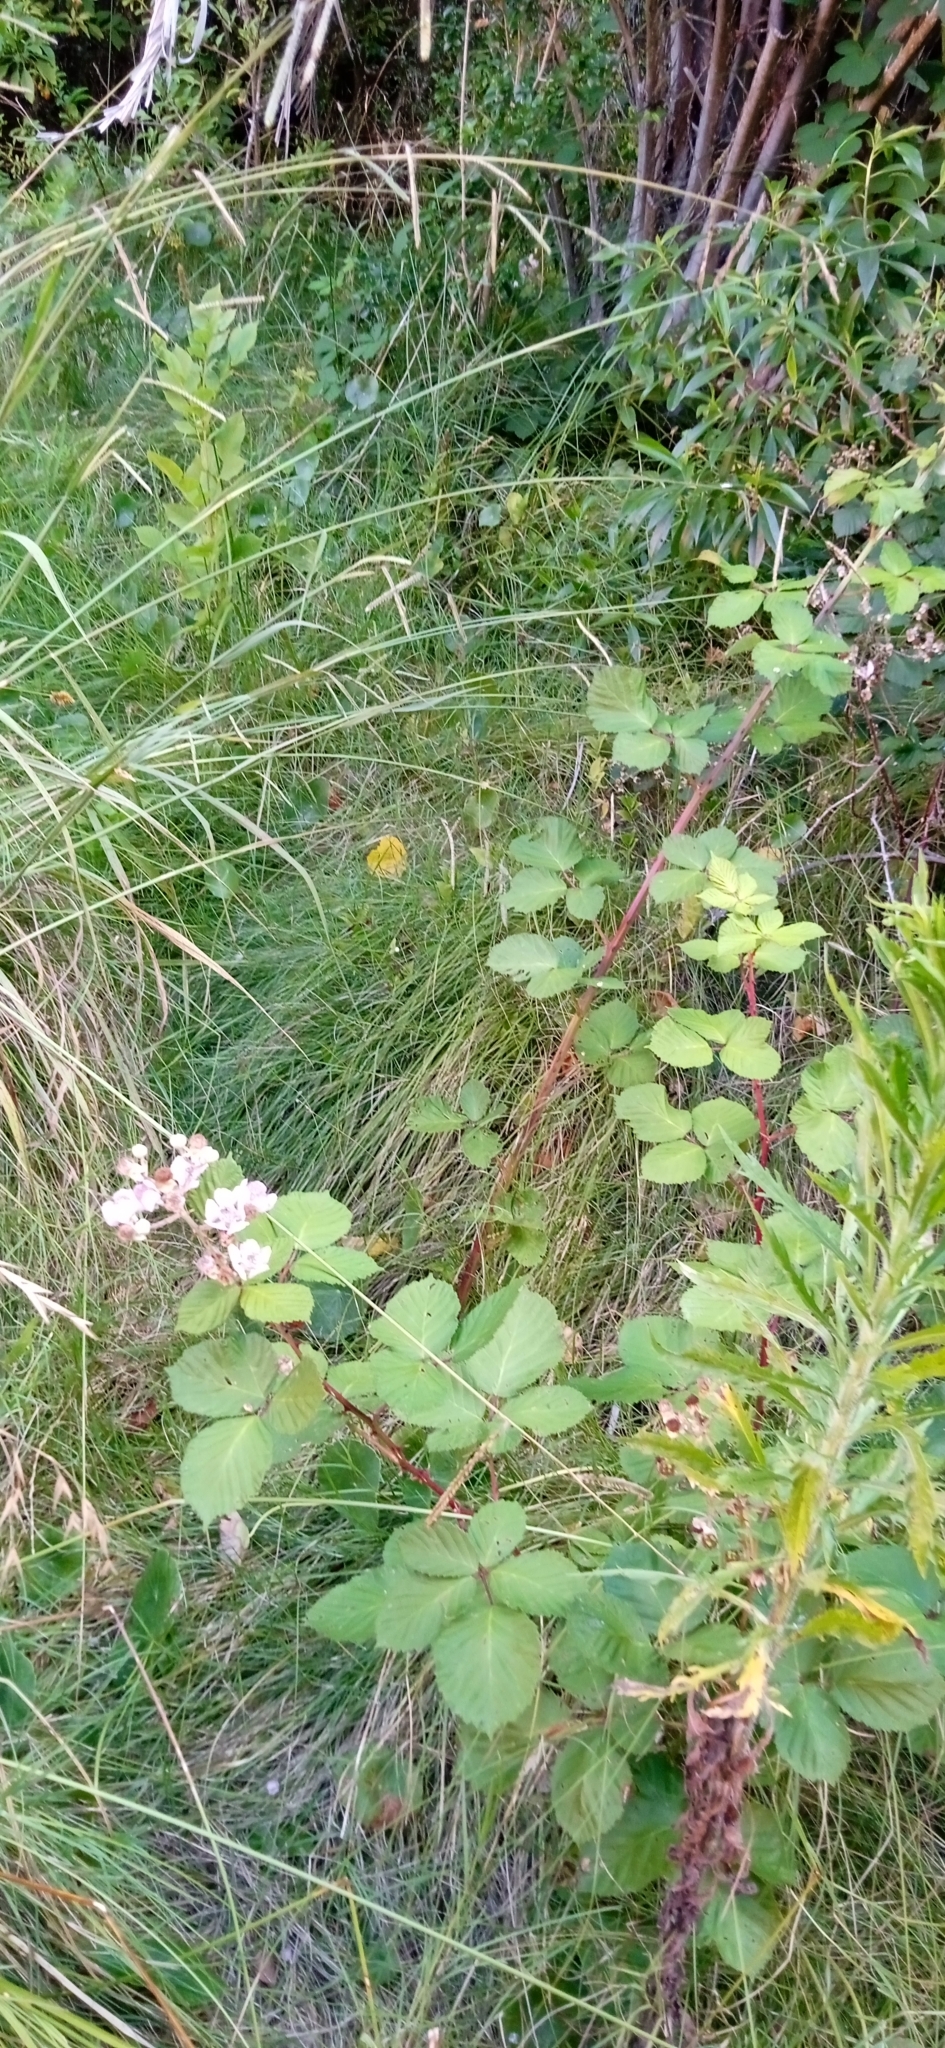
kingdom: Plantae
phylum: Tracheophyta
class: Magnoliopsida
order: Rosales
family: Rosaceae
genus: Rubus
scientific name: Rubus ulmifolius
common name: Elmleaf blackberry
